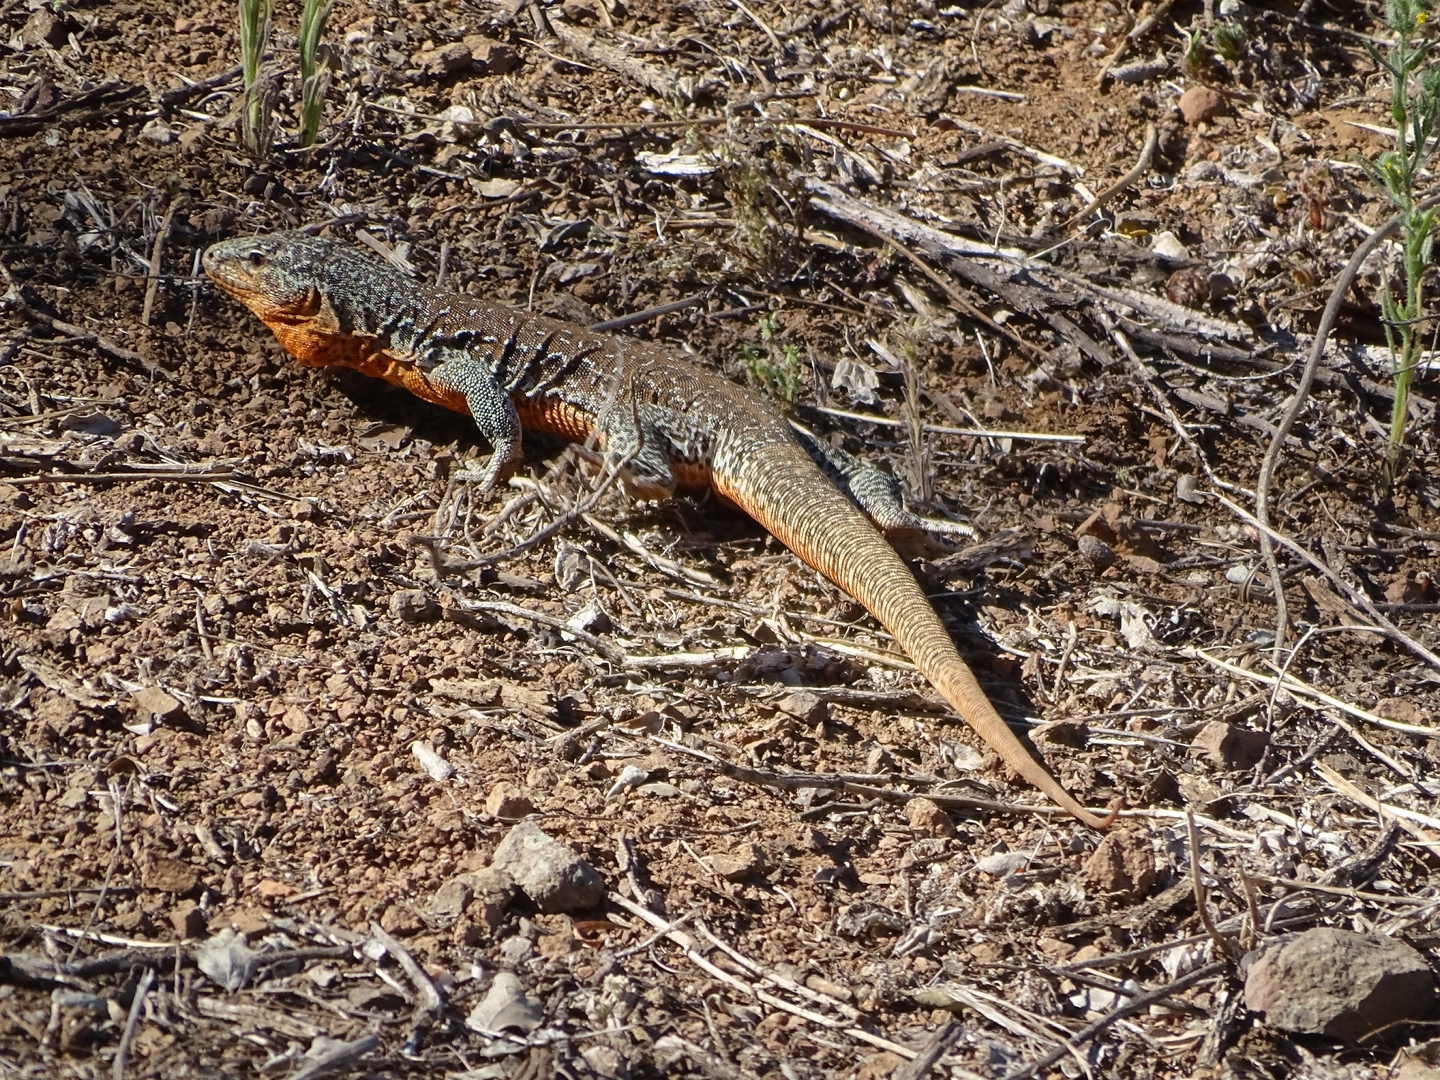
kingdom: Animalia
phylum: Chordata
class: Squamata
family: Teiidae
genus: Callopistes
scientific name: Callopistes maculatus
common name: Spotted false monitor
